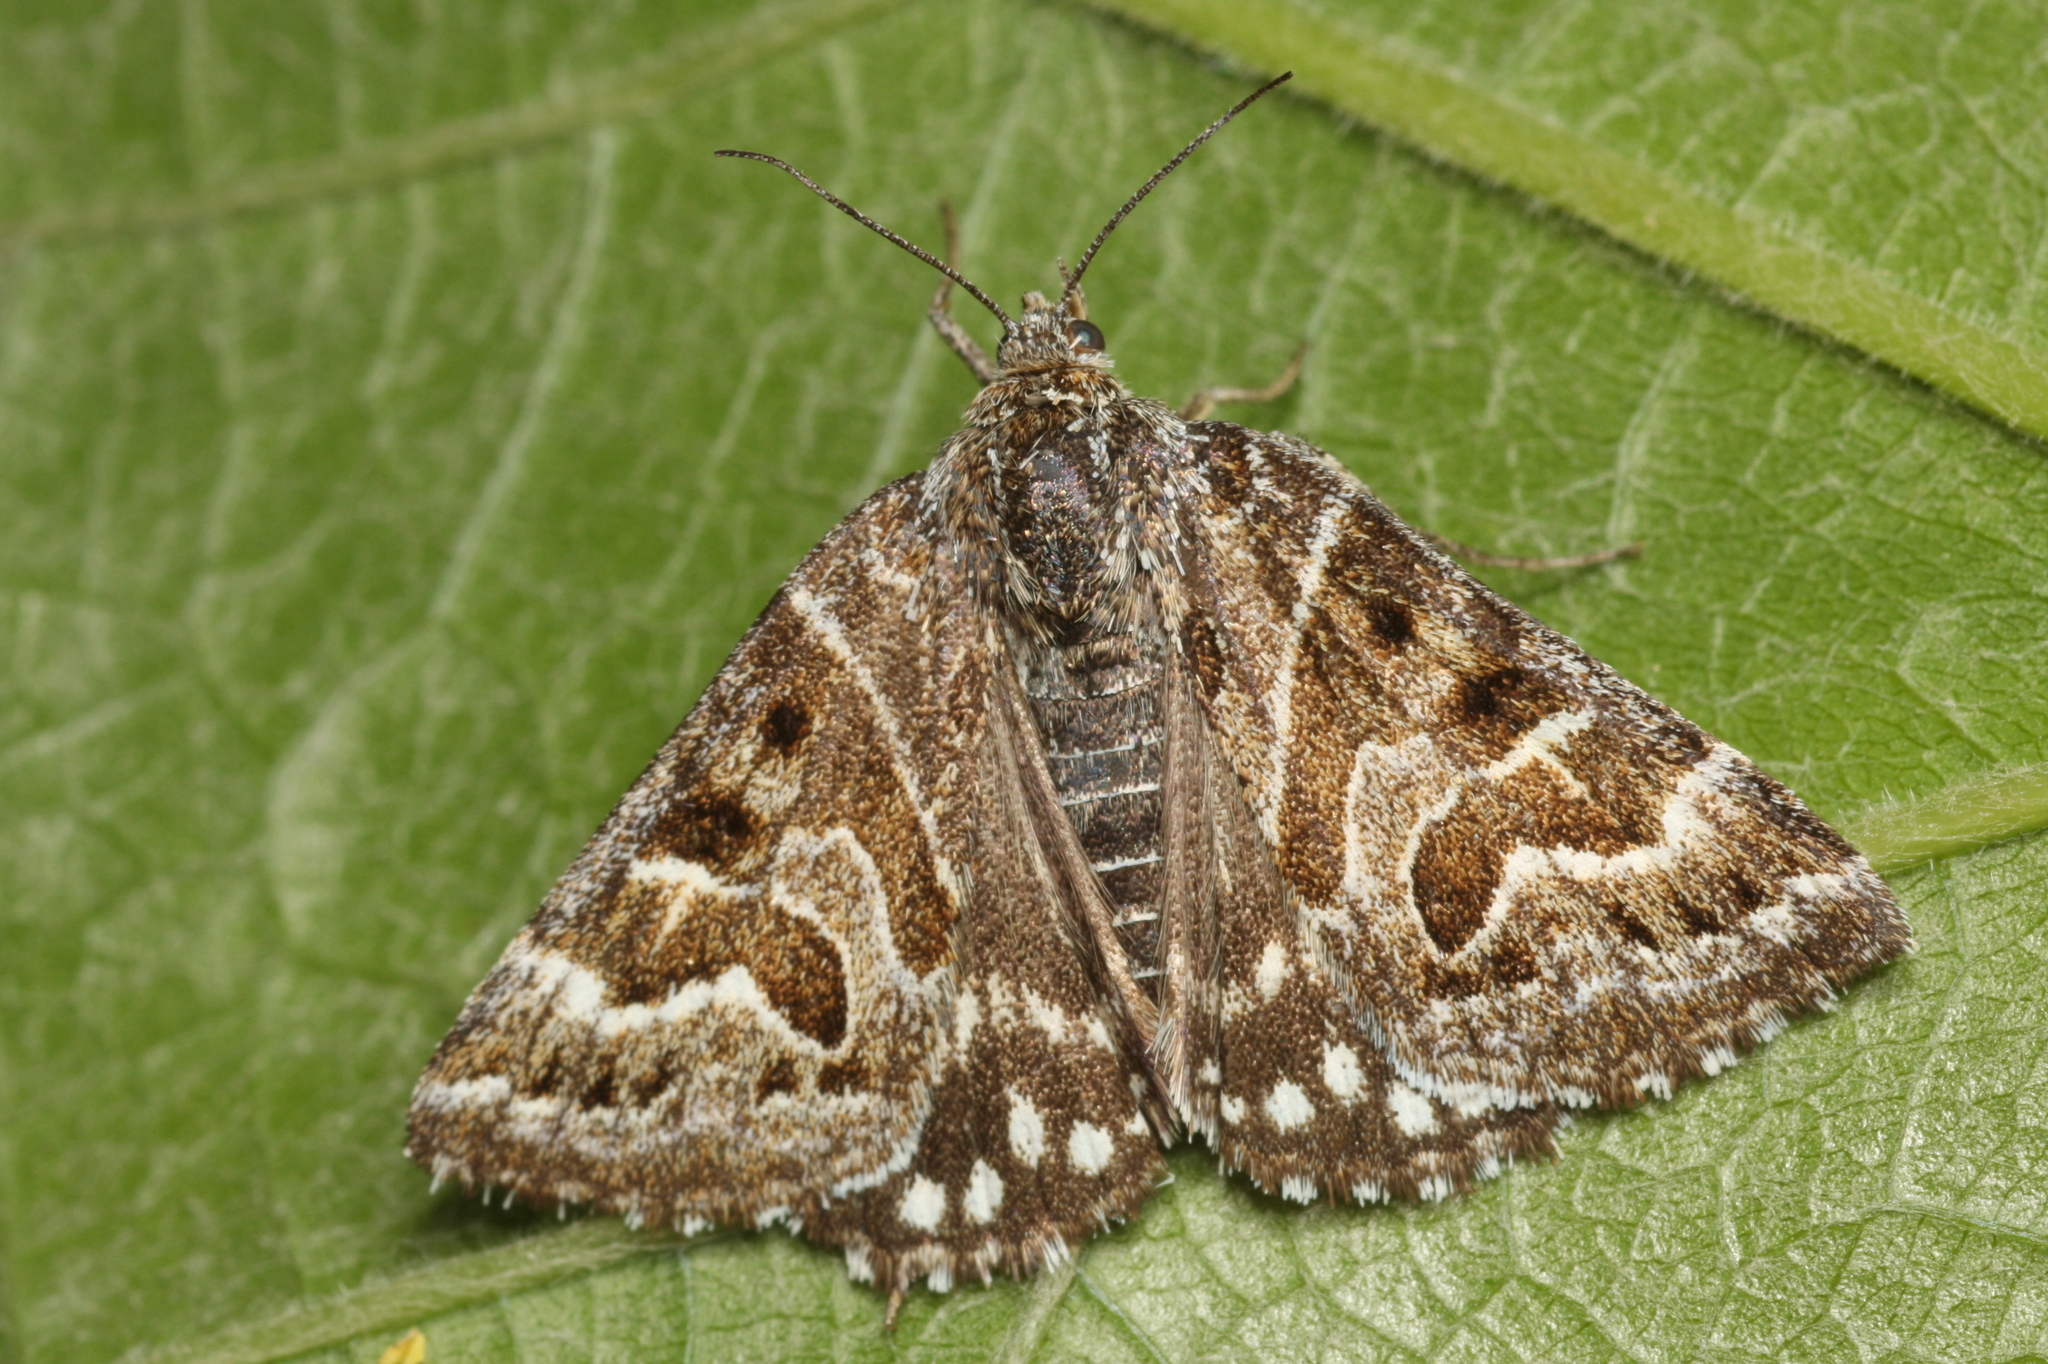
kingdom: Animalia
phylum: Arthropoda
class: Insecta
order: Lepidoptera
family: Erebidae
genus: Callistege
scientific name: Callistege mi
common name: Mother shipton
